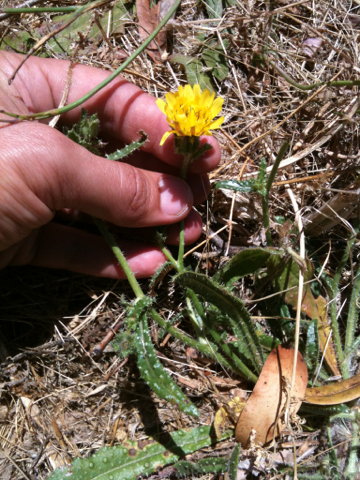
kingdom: Plantae
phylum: Tracheophyta
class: Magnoliopsida
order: Asterales
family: Asteraceae
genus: Helminthotheca
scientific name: Helminthotheca echioides
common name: Ox-tongue
